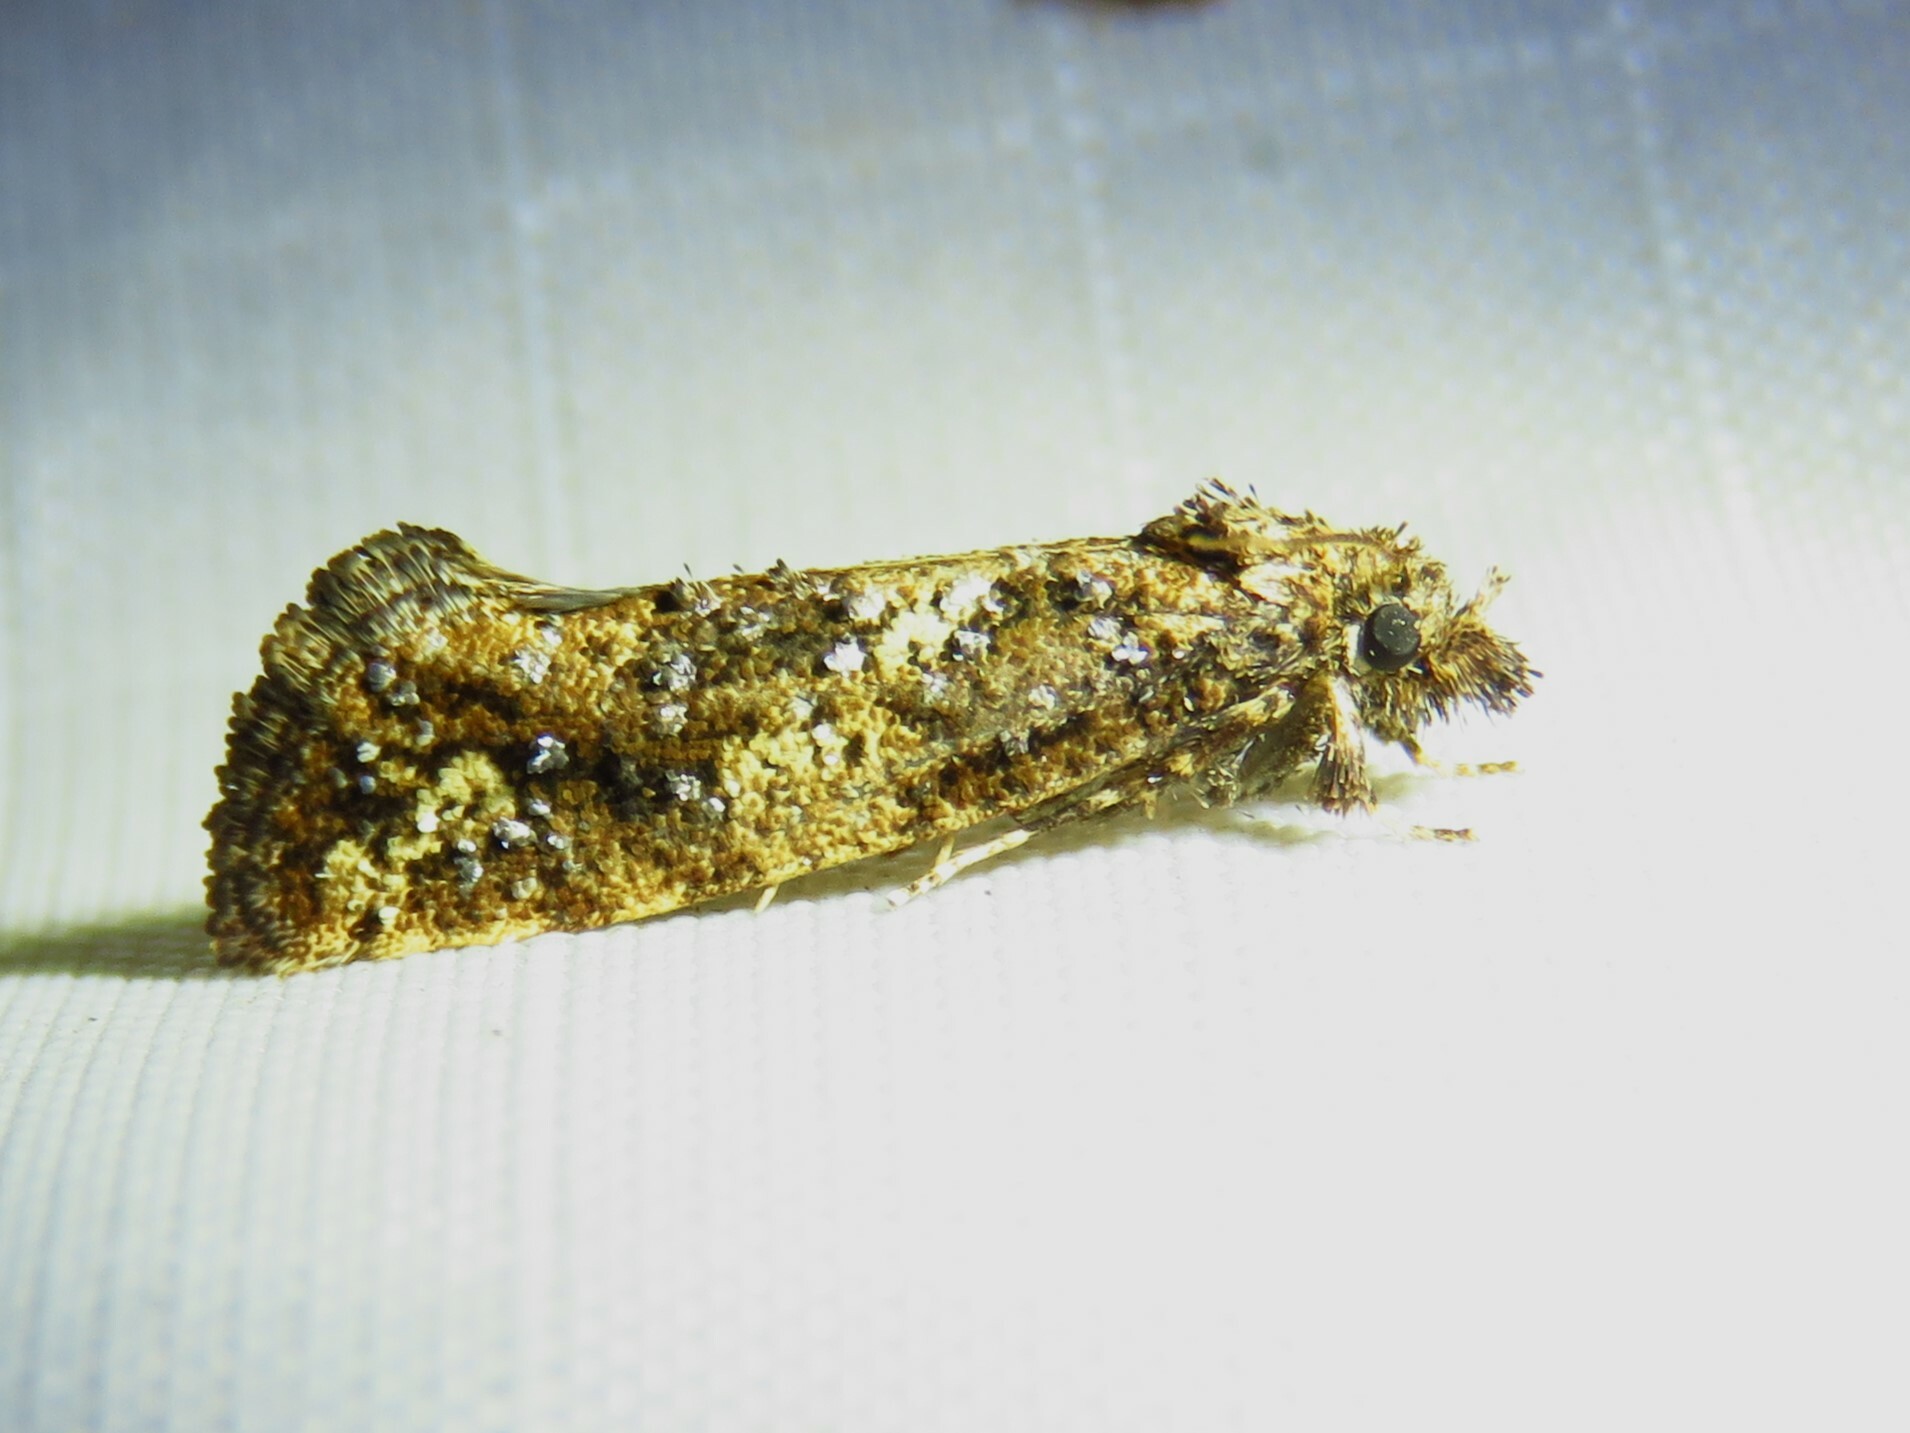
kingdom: Animalia
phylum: Arthropoda
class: Insecta
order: Lepidoptera
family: Tineidae
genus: Acrolophus
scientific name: Acrolophus cressoni
